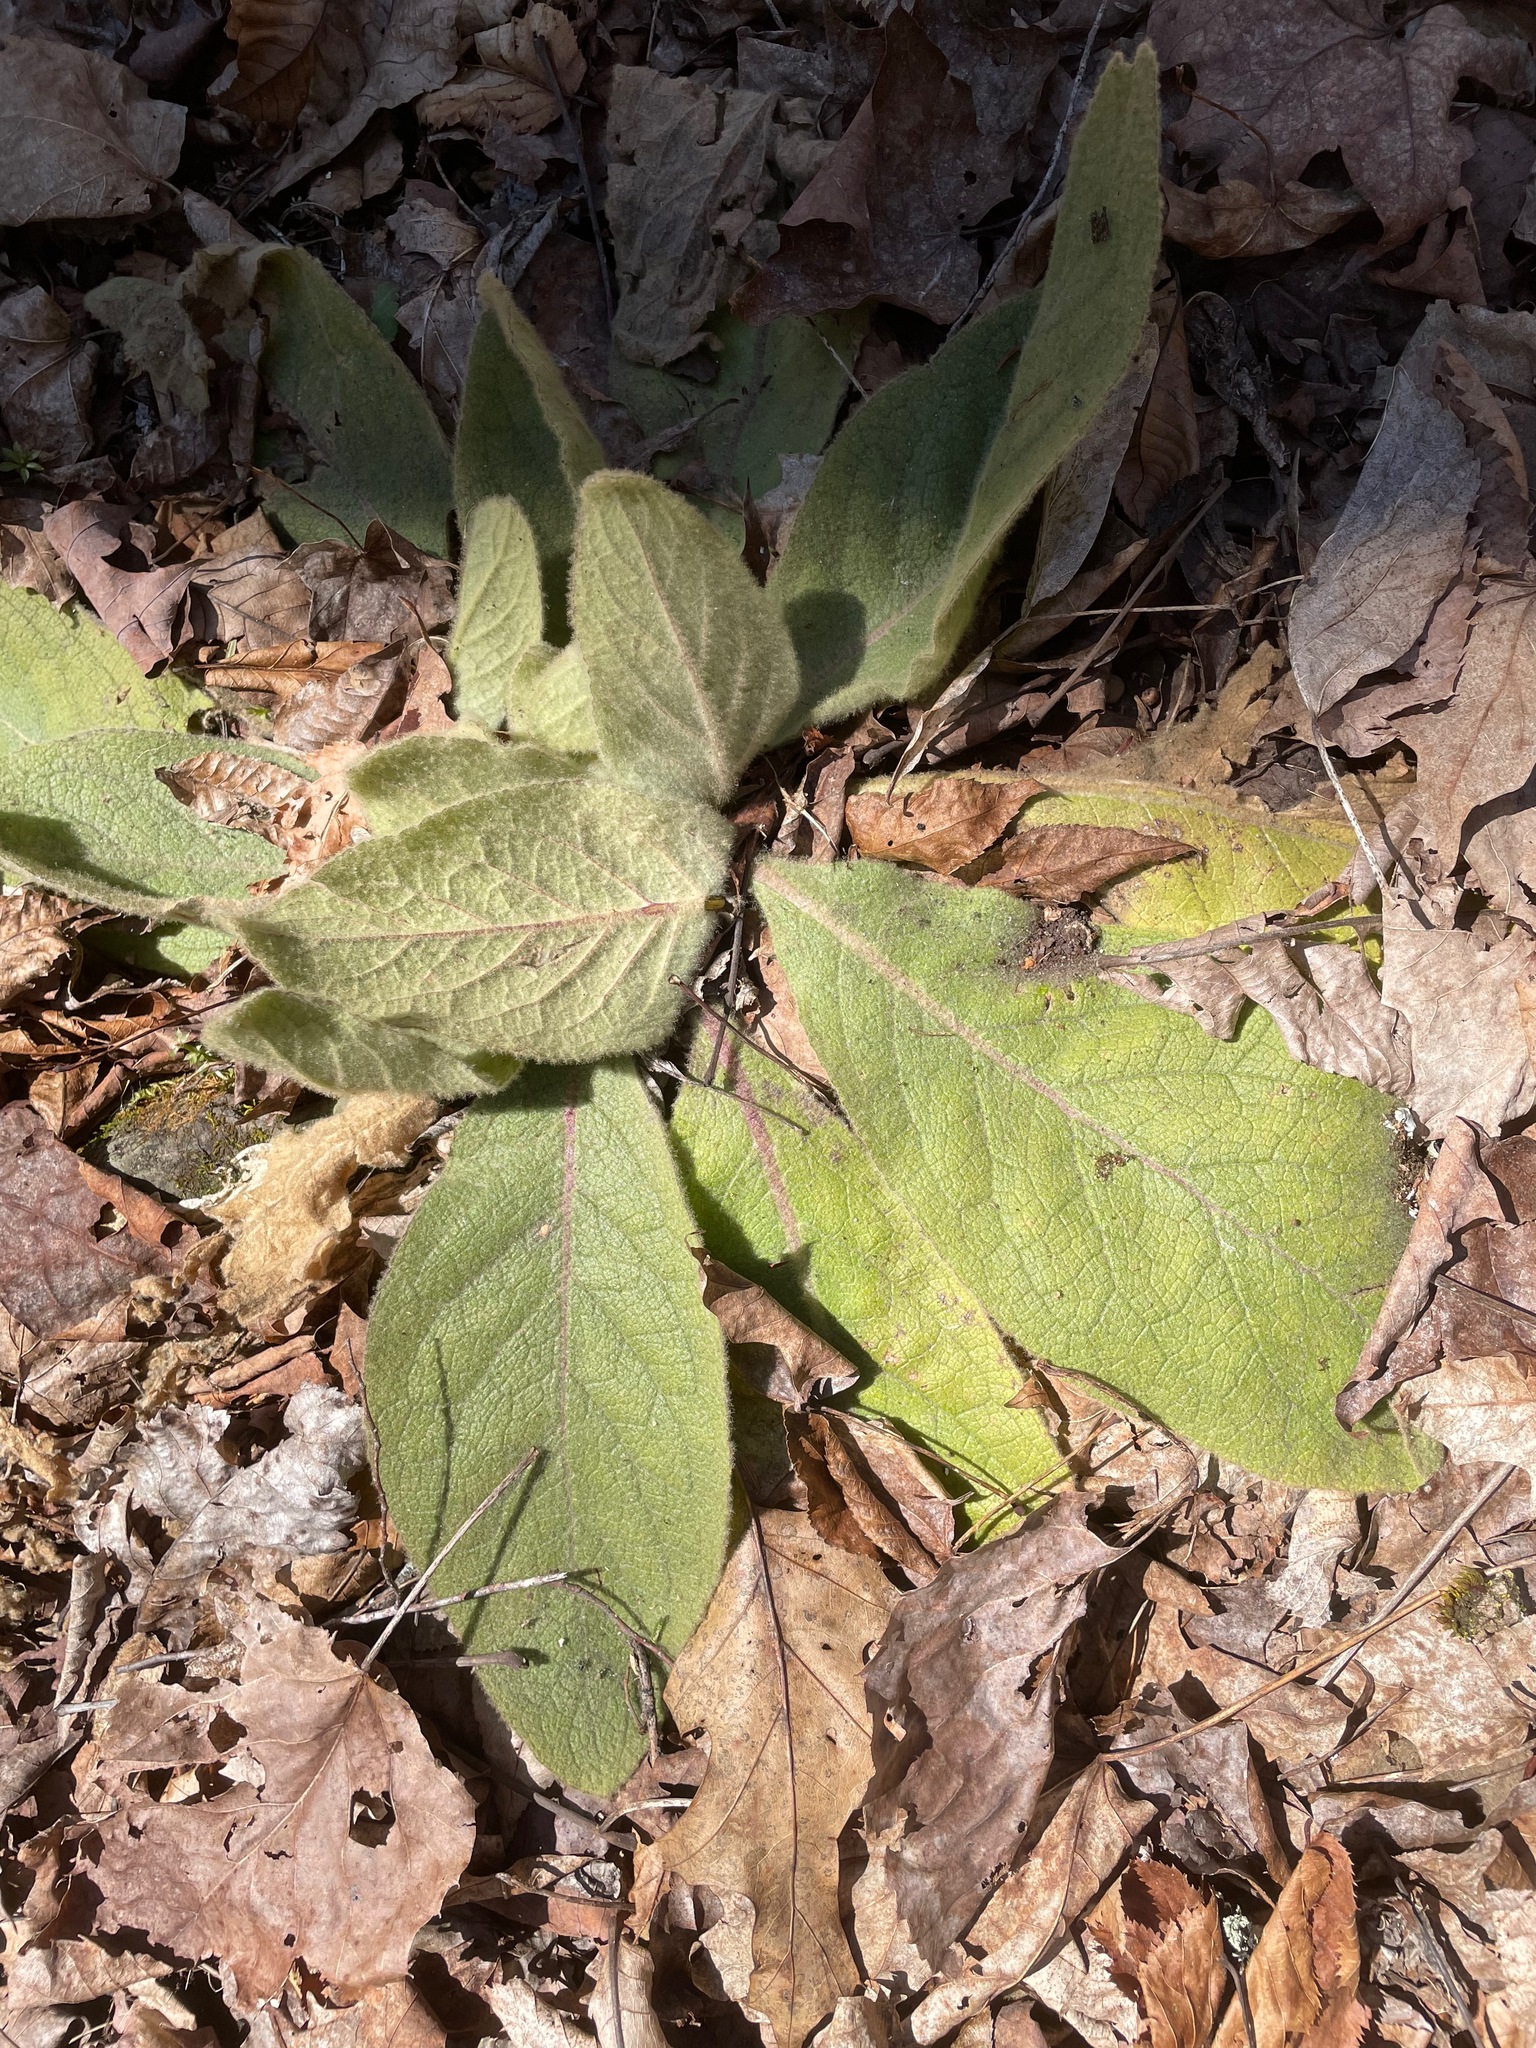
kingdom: Plantae
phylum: Tracheophyta
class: Magnoliopsida
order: Lamiales
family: Scrophulariaceae
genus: Verbascum
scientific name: Verbascum thapsus
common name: Common mullein
